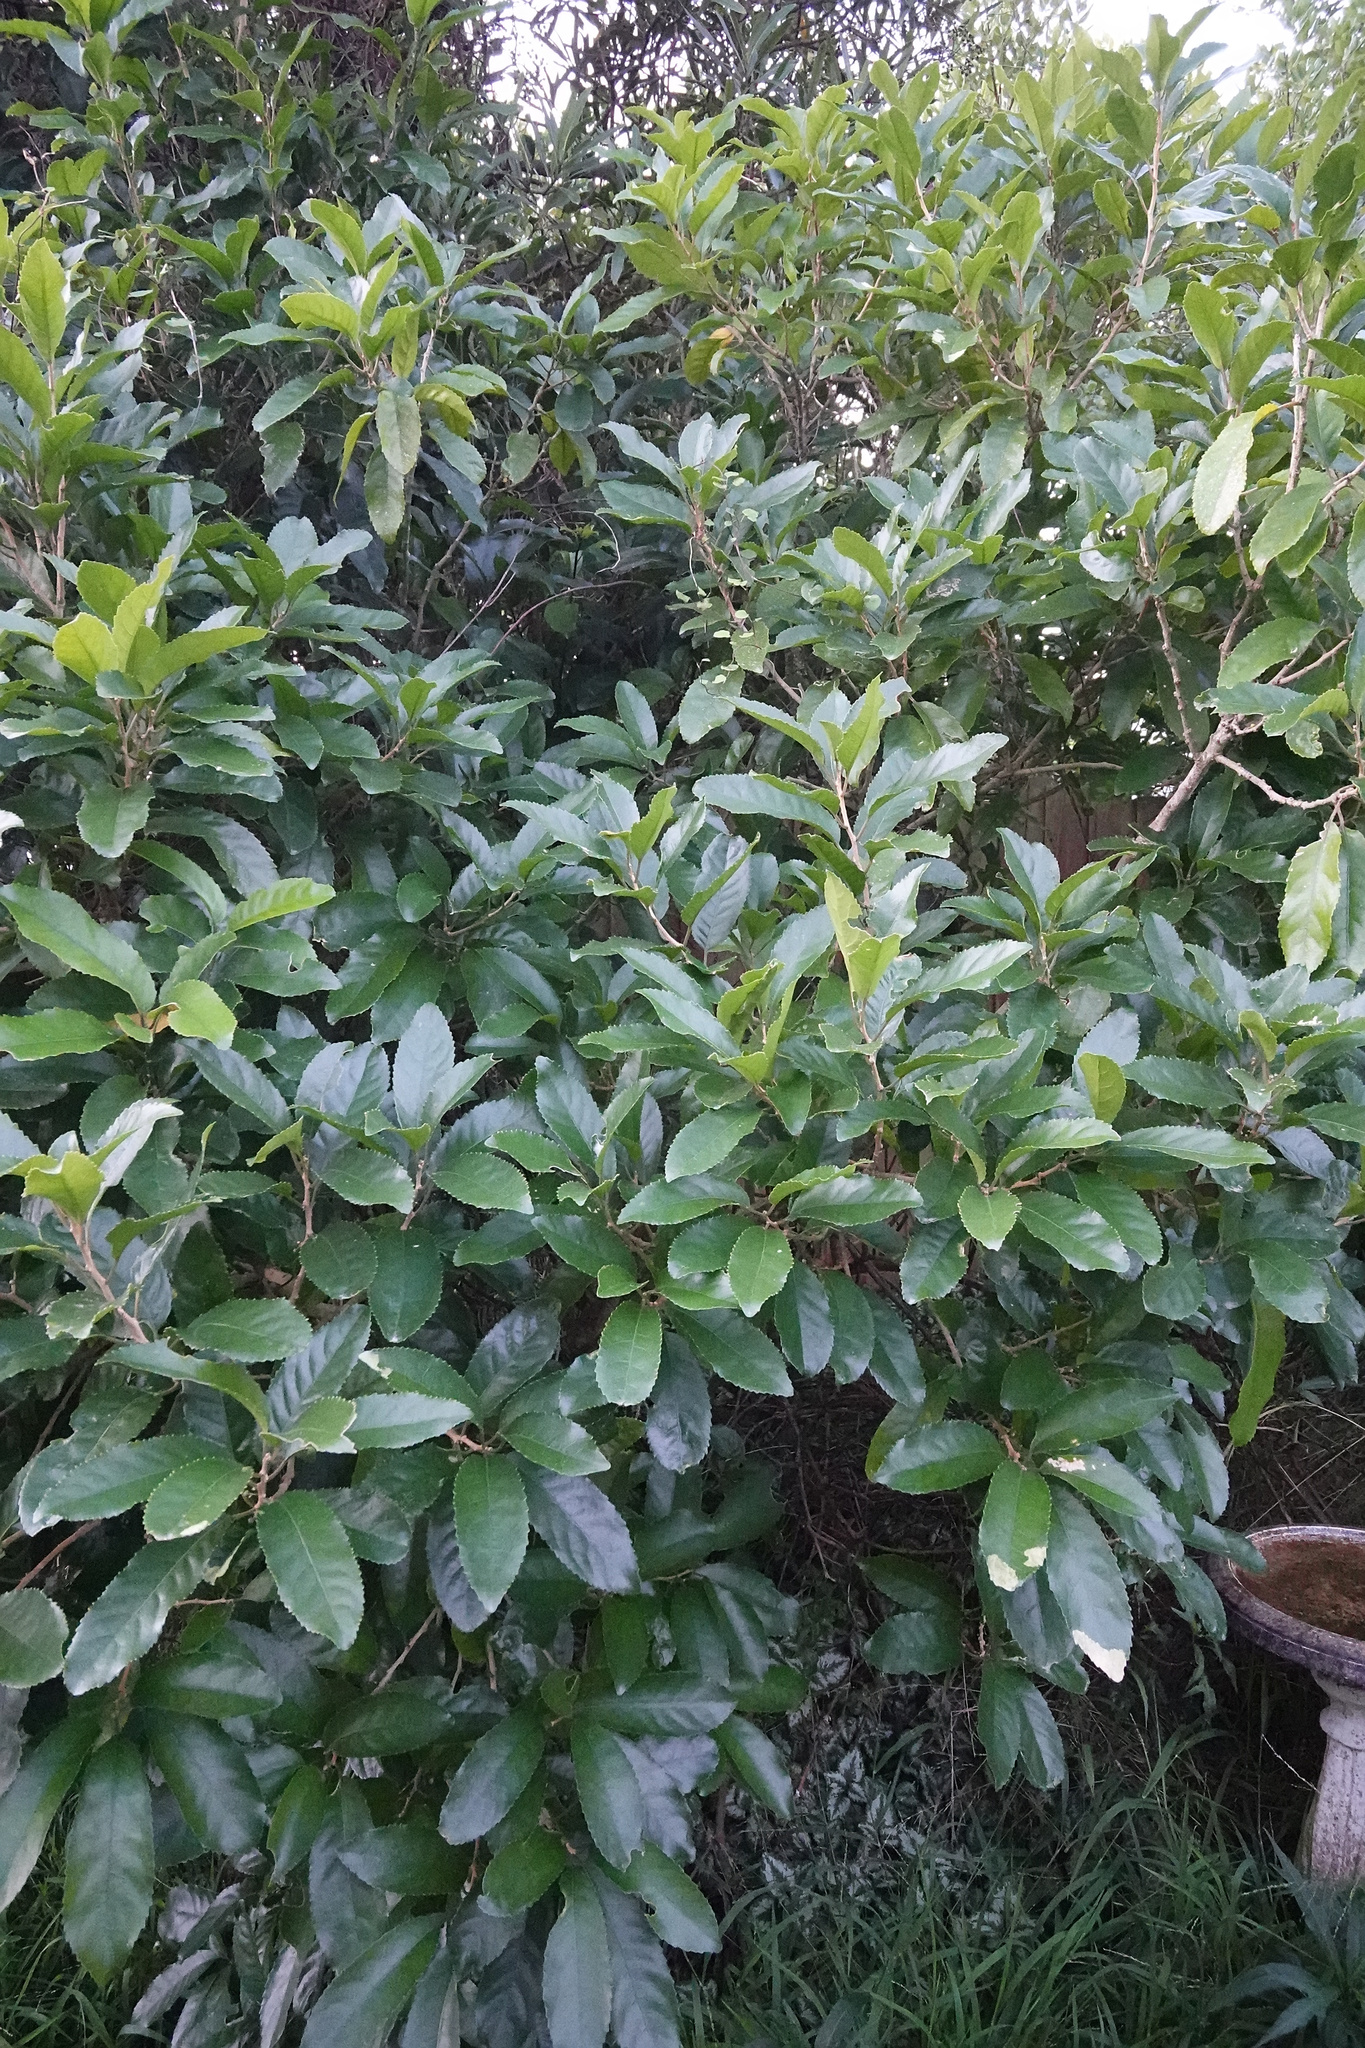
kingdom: Plantae
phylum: Tracheophyta
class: Magnoliopsida
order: Malpighiales
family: Violaceae
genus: Melicytus
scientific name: Melicytus ramiflorus
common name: Mahoe
